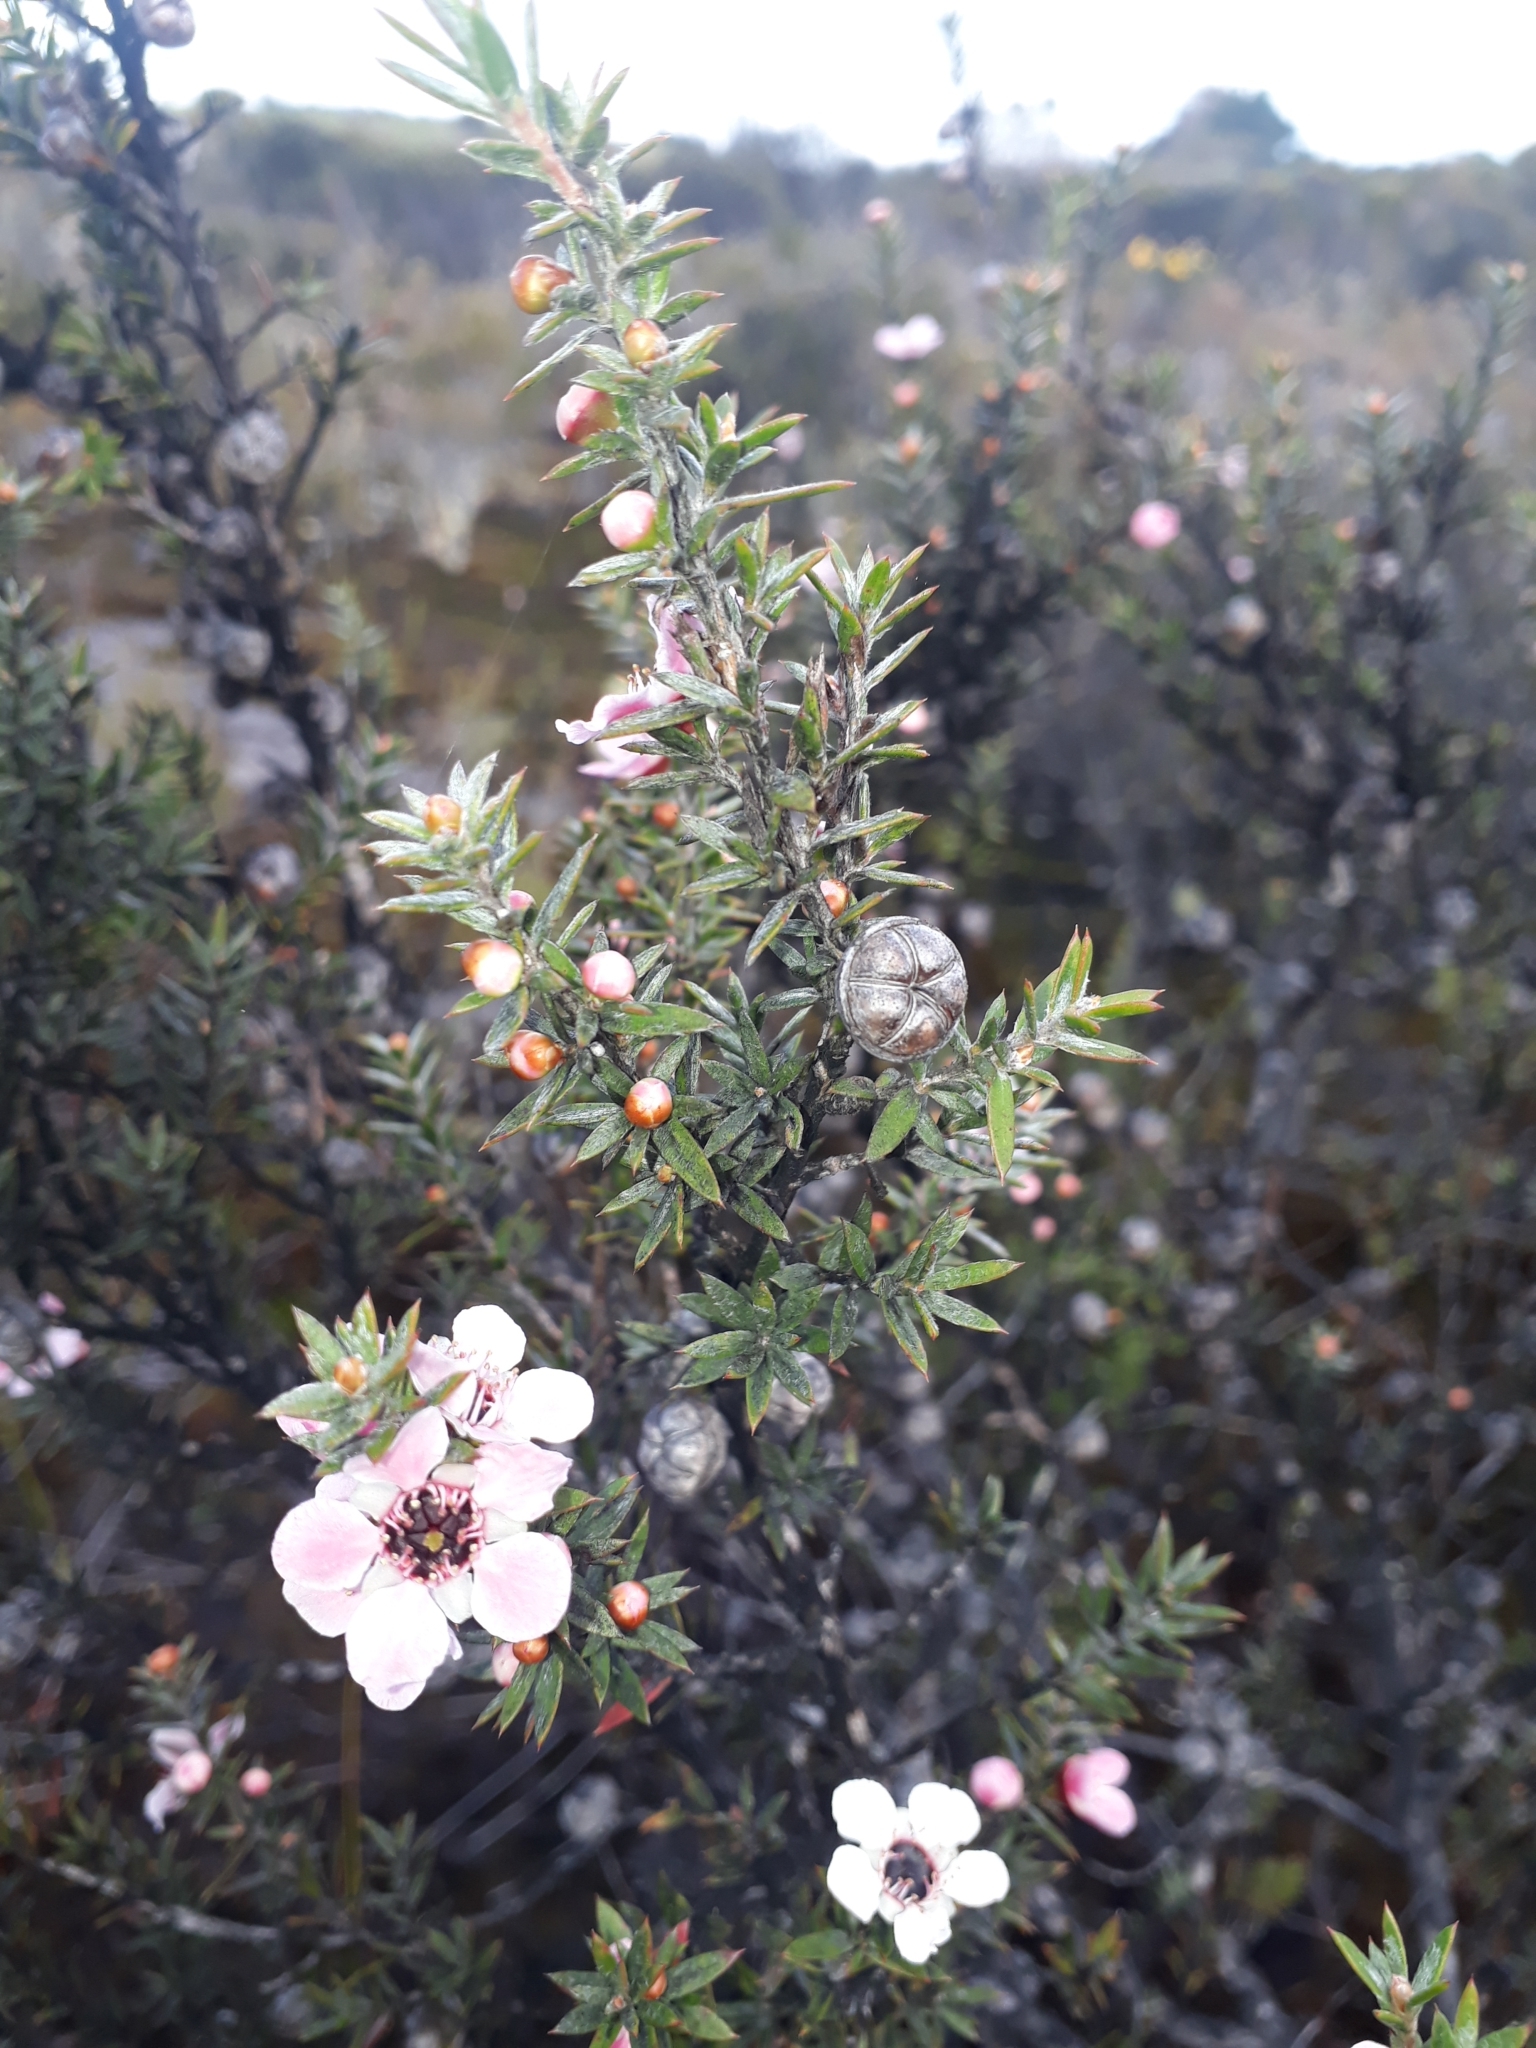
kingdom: Plantae
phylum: Tracheophyta
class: Magnoliopsida
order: Myrtales
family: Myrtaceae
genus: Leptospermum
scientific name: Leptospermum scoparium
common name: Broom tea-tree
